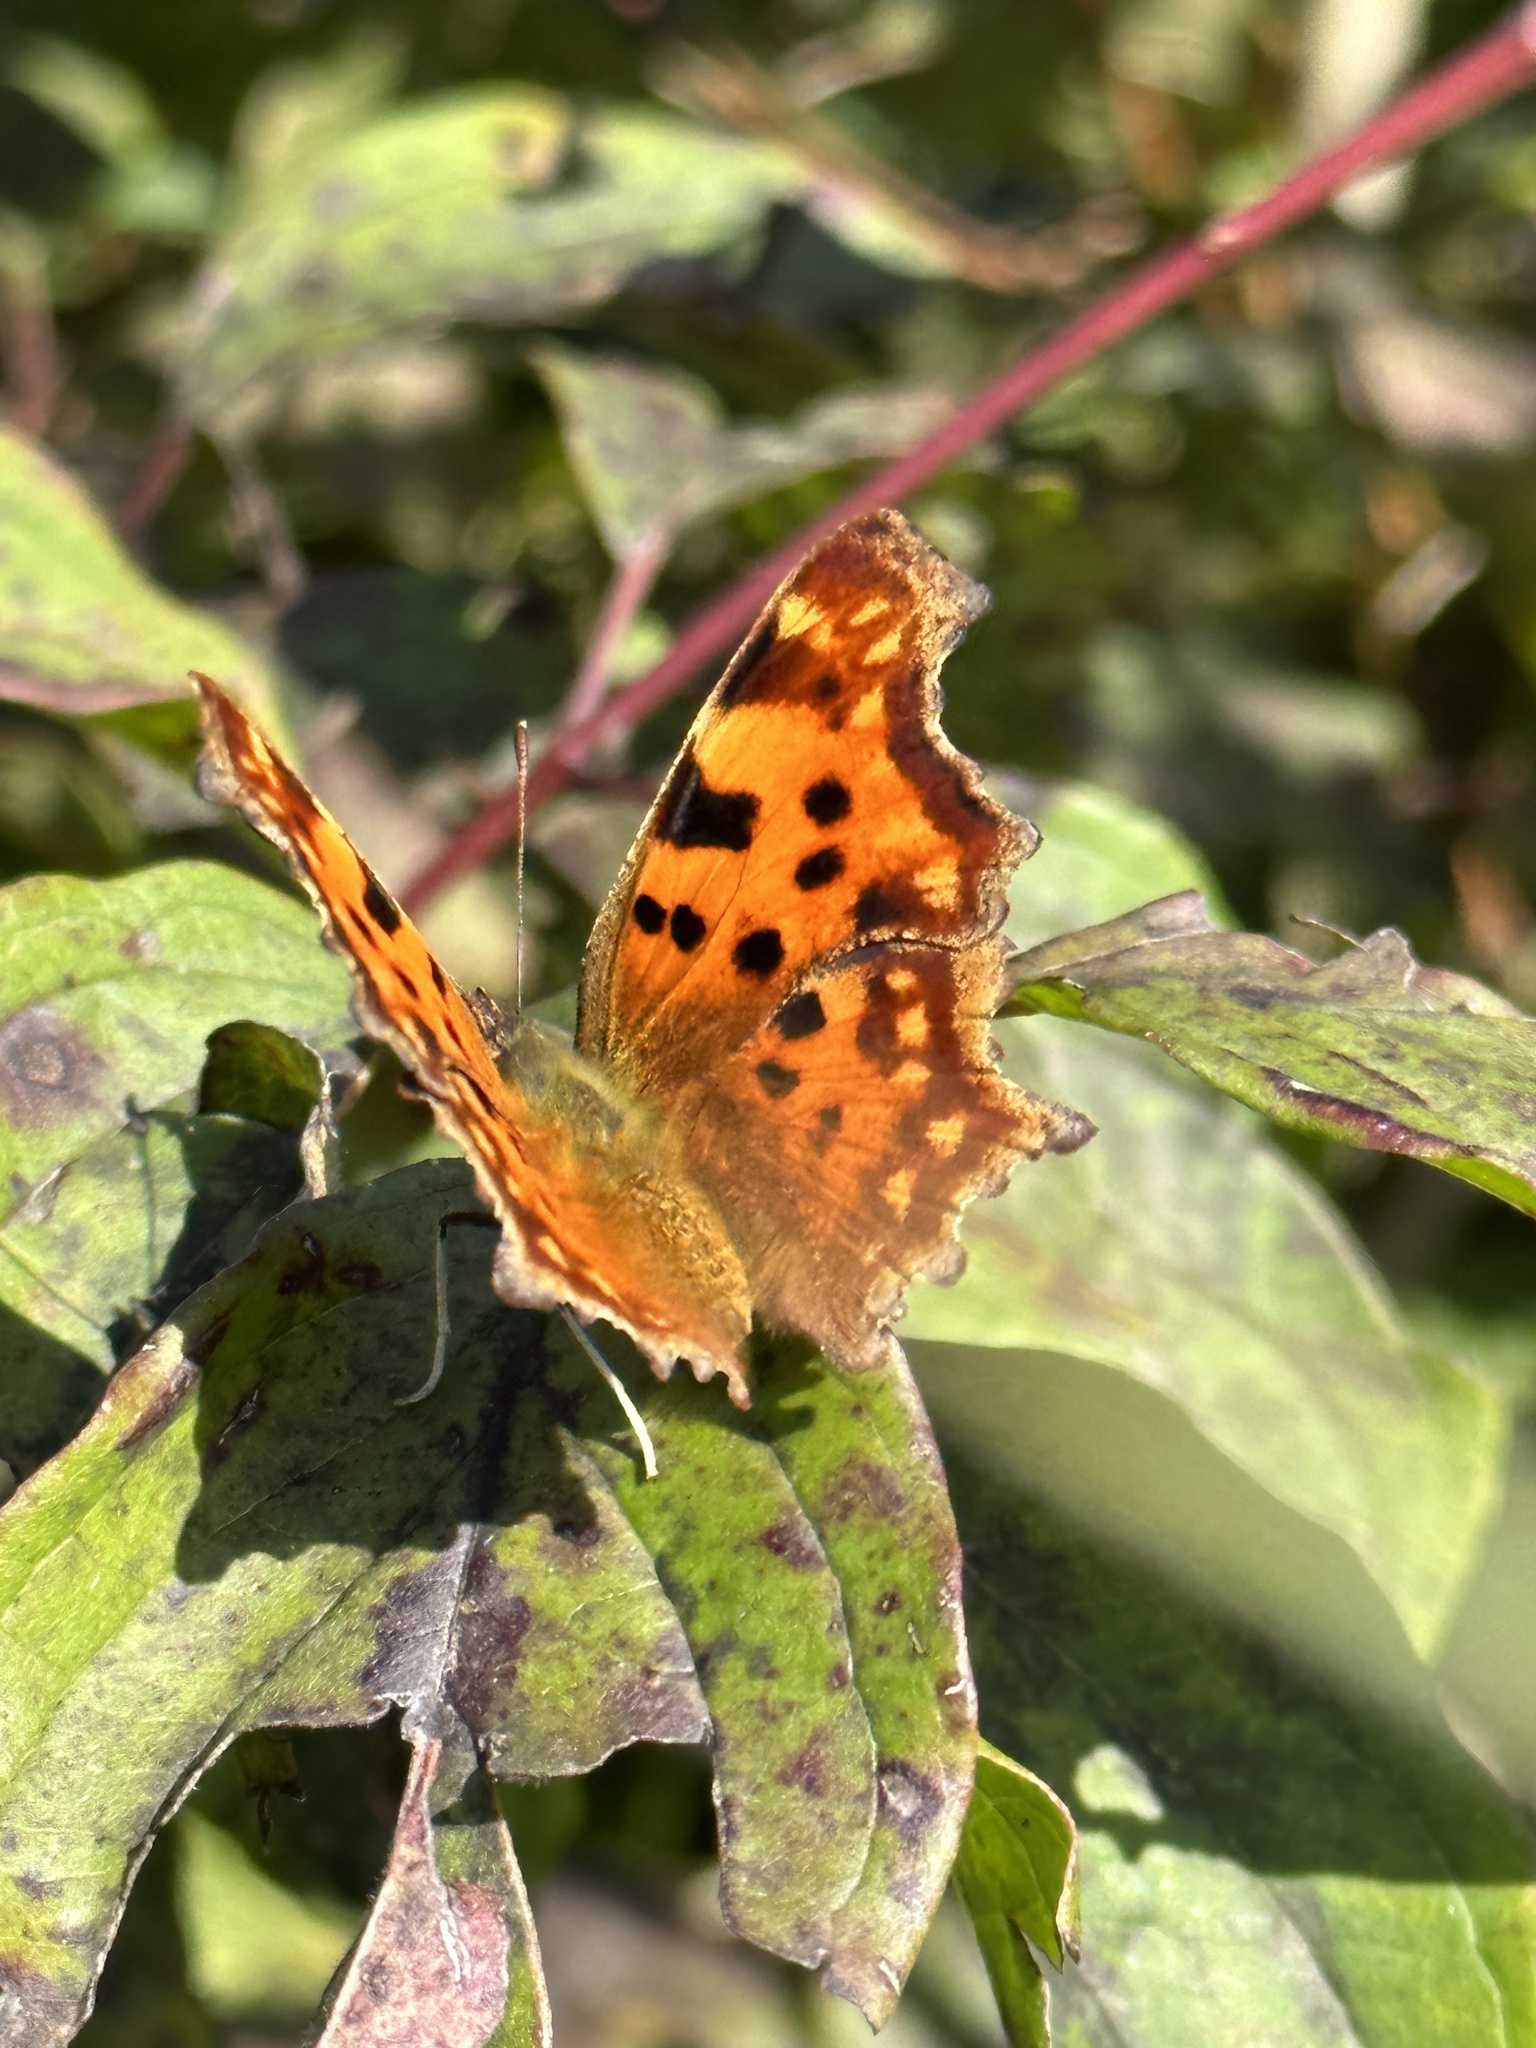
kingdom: Animalia
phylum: Arthropoda
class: Insecta
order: Lepidoptera
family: Nymphalidae
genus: Polygonia
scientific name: Polygonia c-album
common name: Comma
